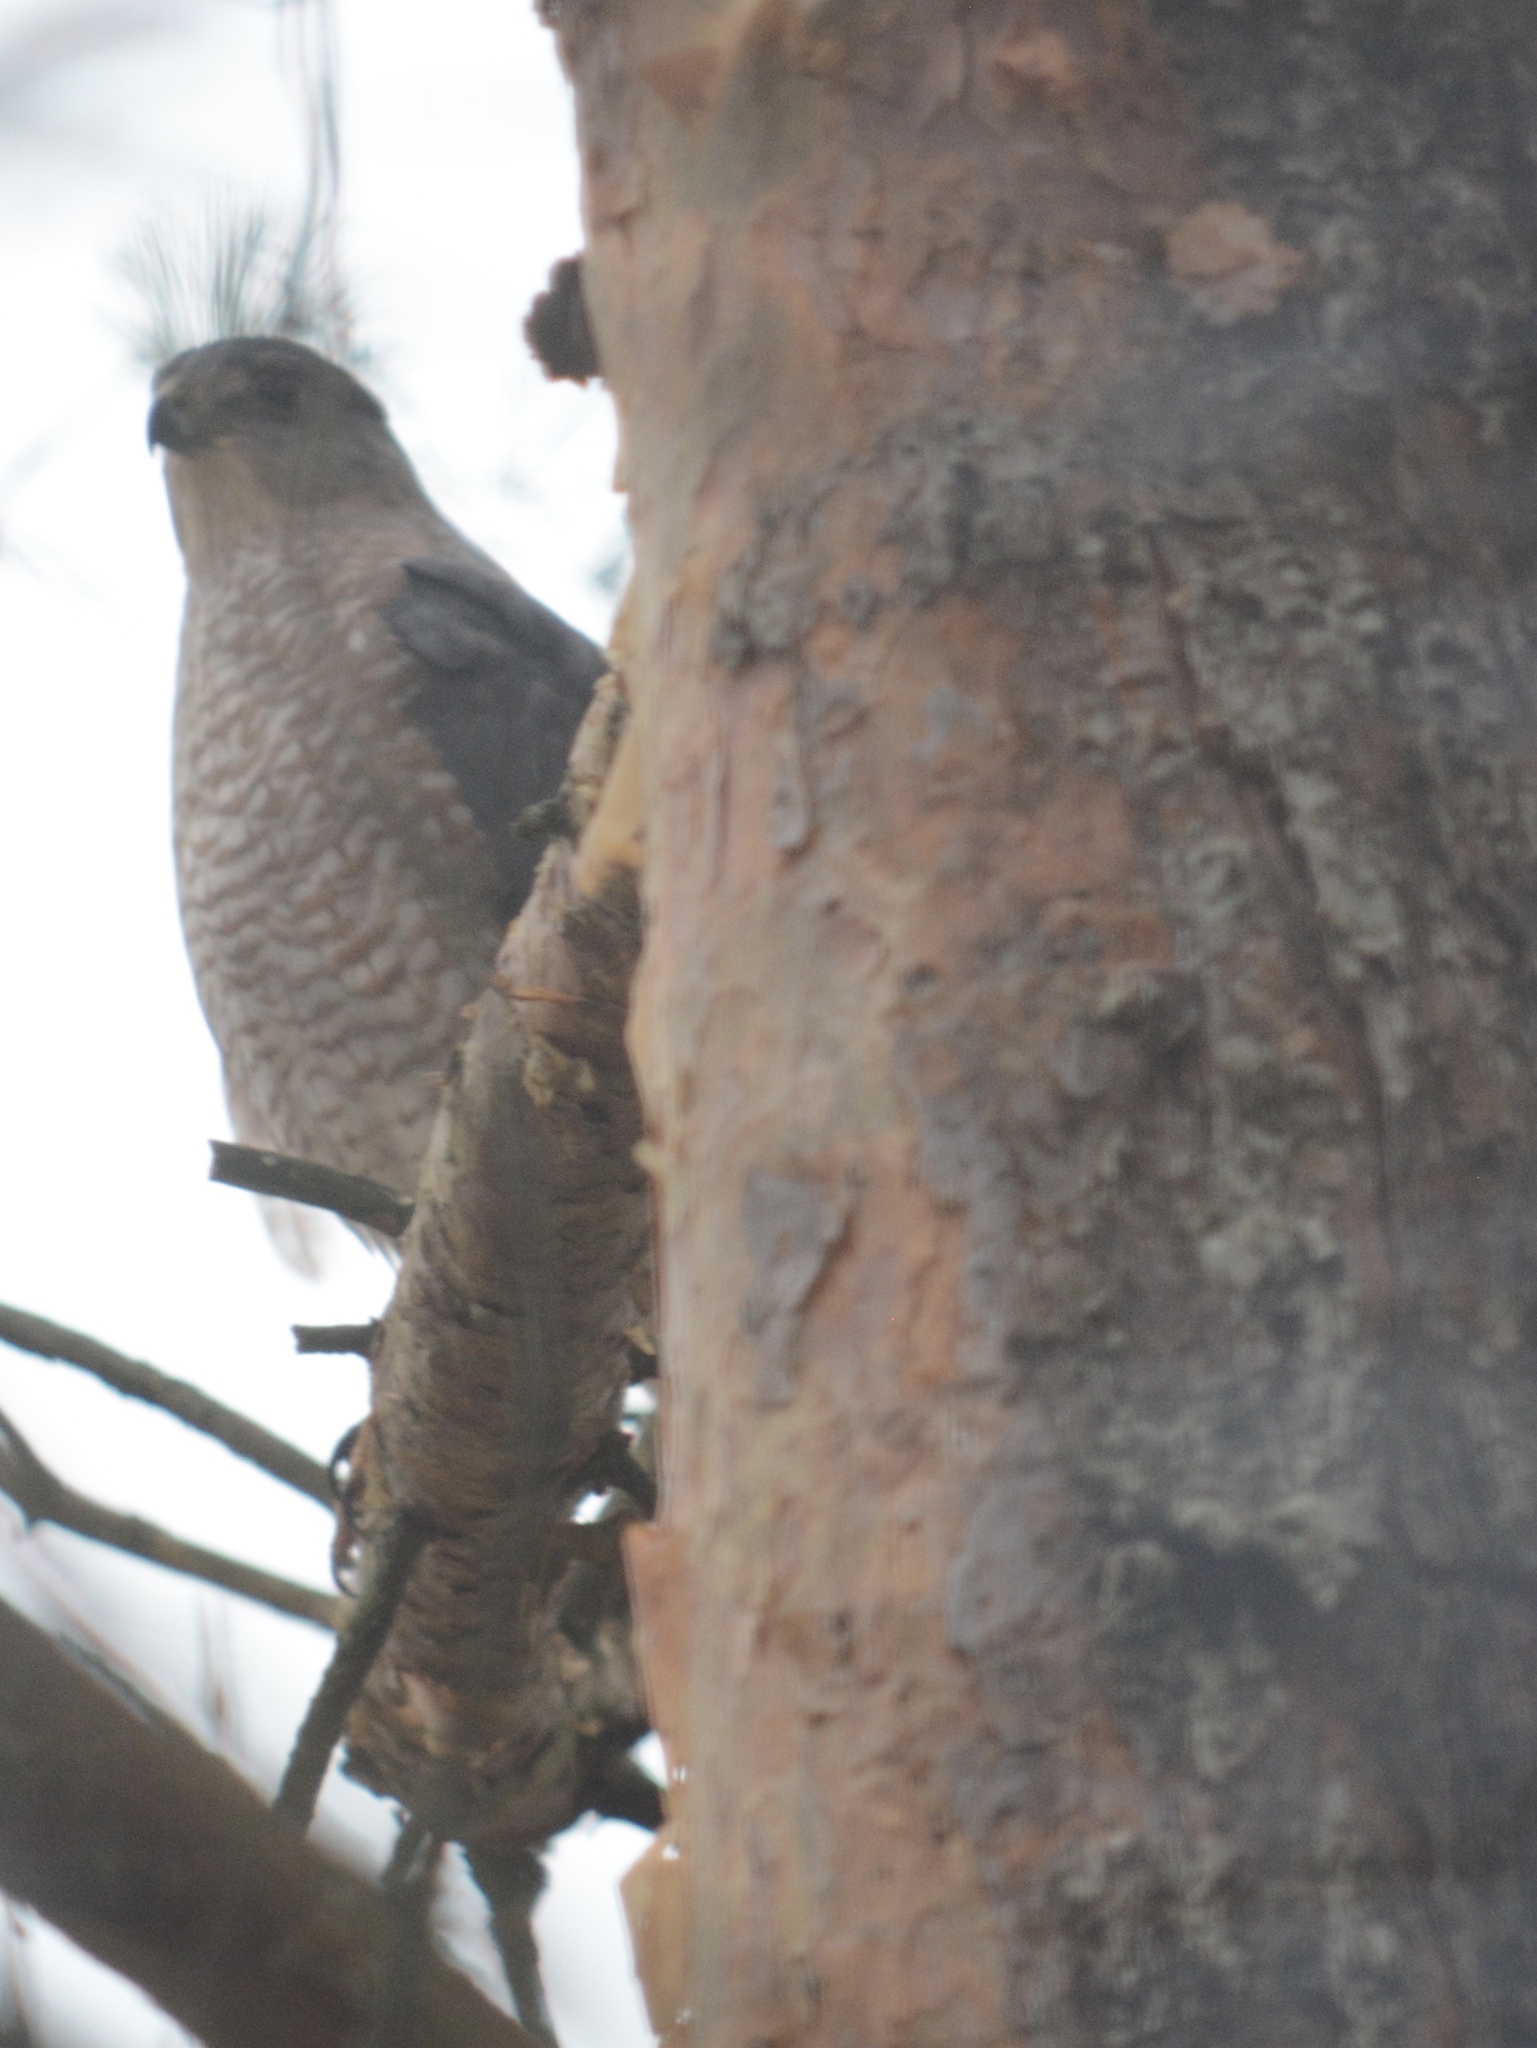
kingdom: Animalia
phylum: Chordata
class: Aves
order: Accipitriformes
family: Accipitridae
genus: Accipiter
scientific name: Accipiter cooperii
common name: Cooper's hawk
